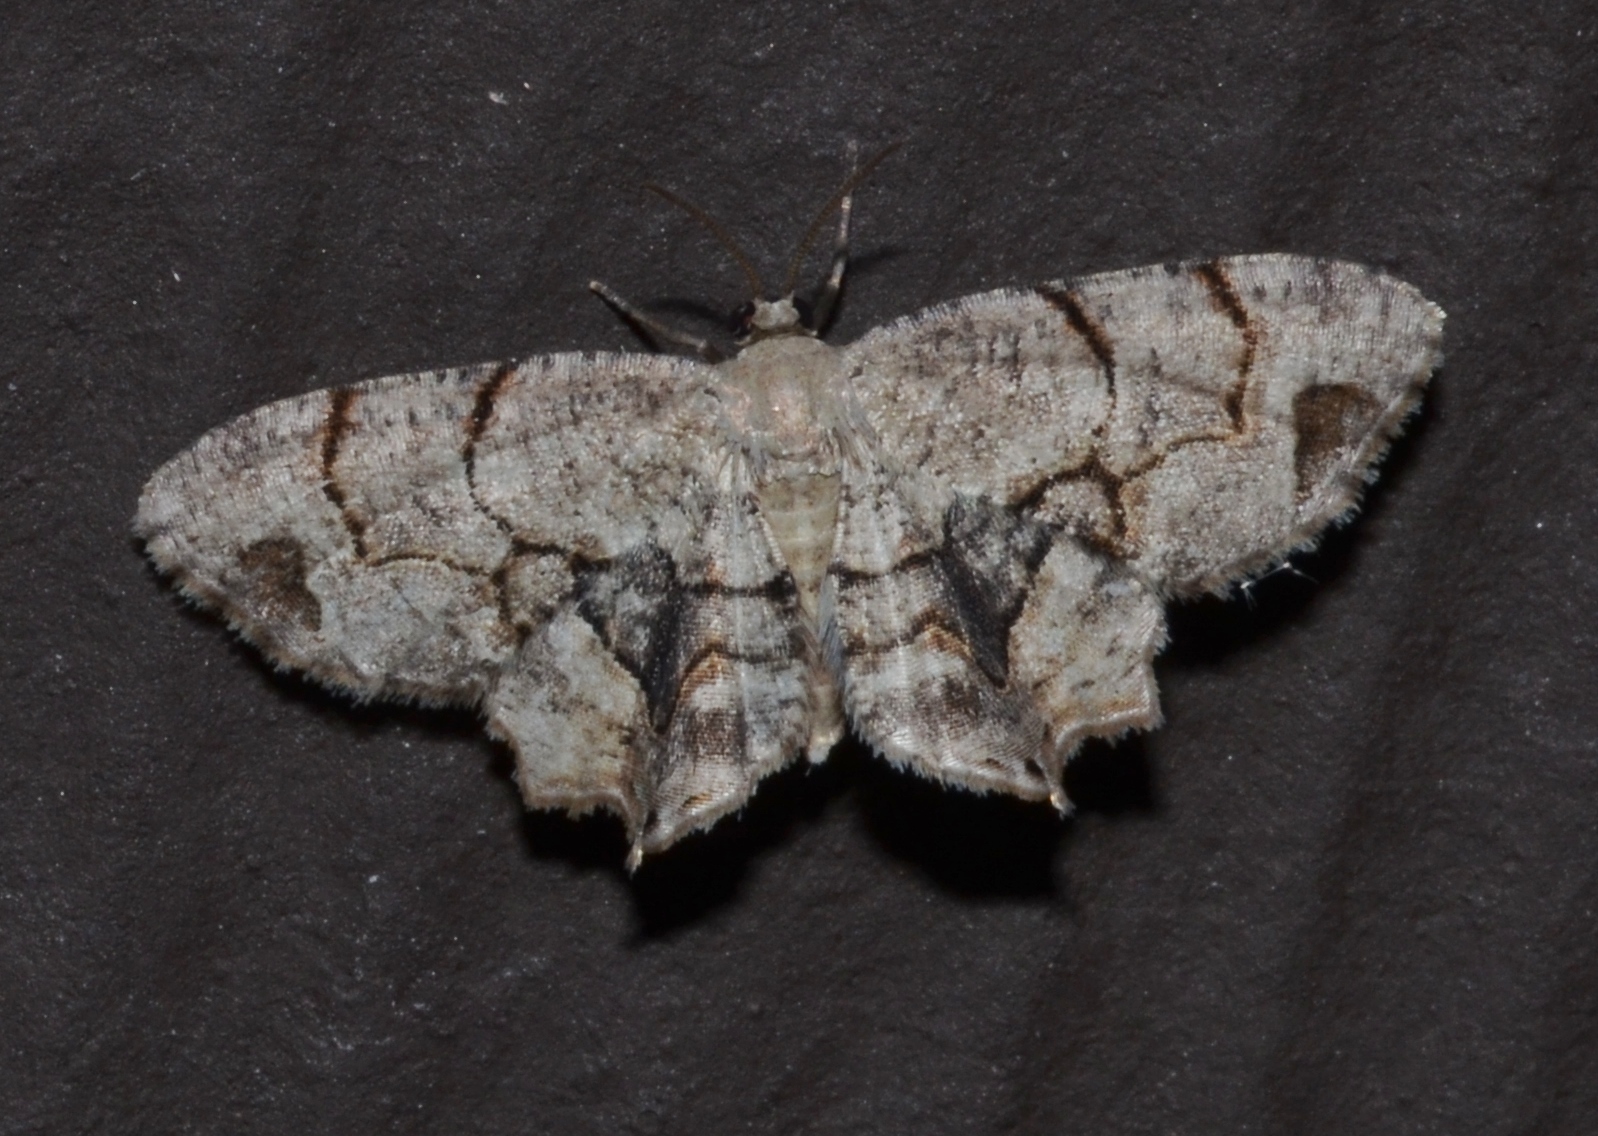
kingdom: Animalia
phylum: Arthropoda
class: Insecta
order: Lepidoptera
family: Uraniidae
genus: Epiplema
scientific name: Epiplema Callizzia amorata
